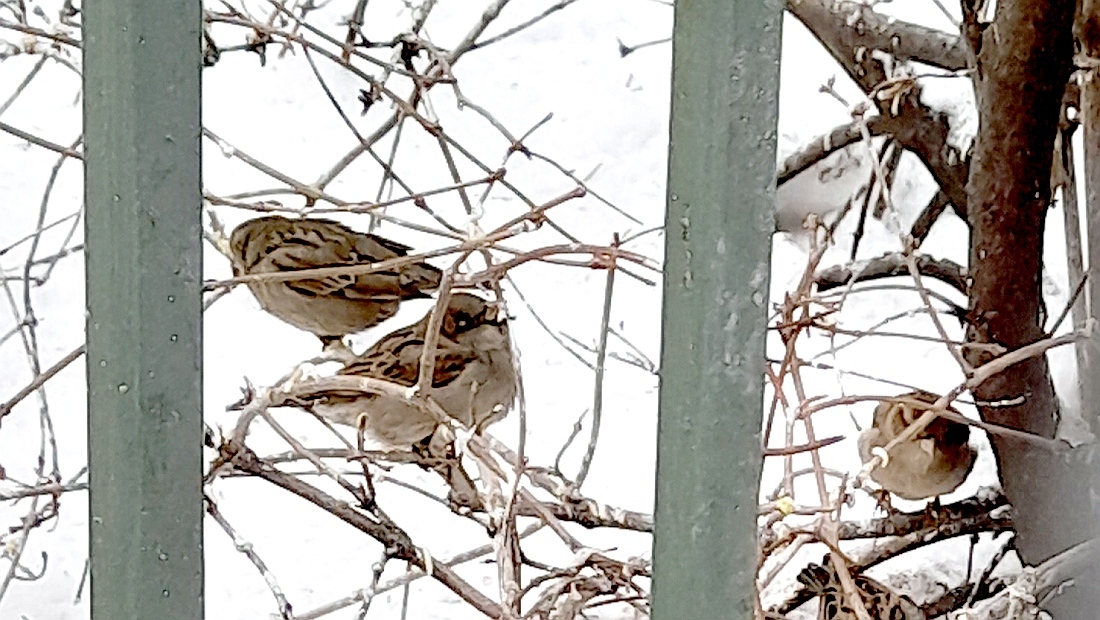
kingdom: Animalia
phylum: Chordata
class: Aves
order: Passeriformes
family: Passeridae
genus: Passer
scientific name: Passer domesticus
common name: House sparrow
